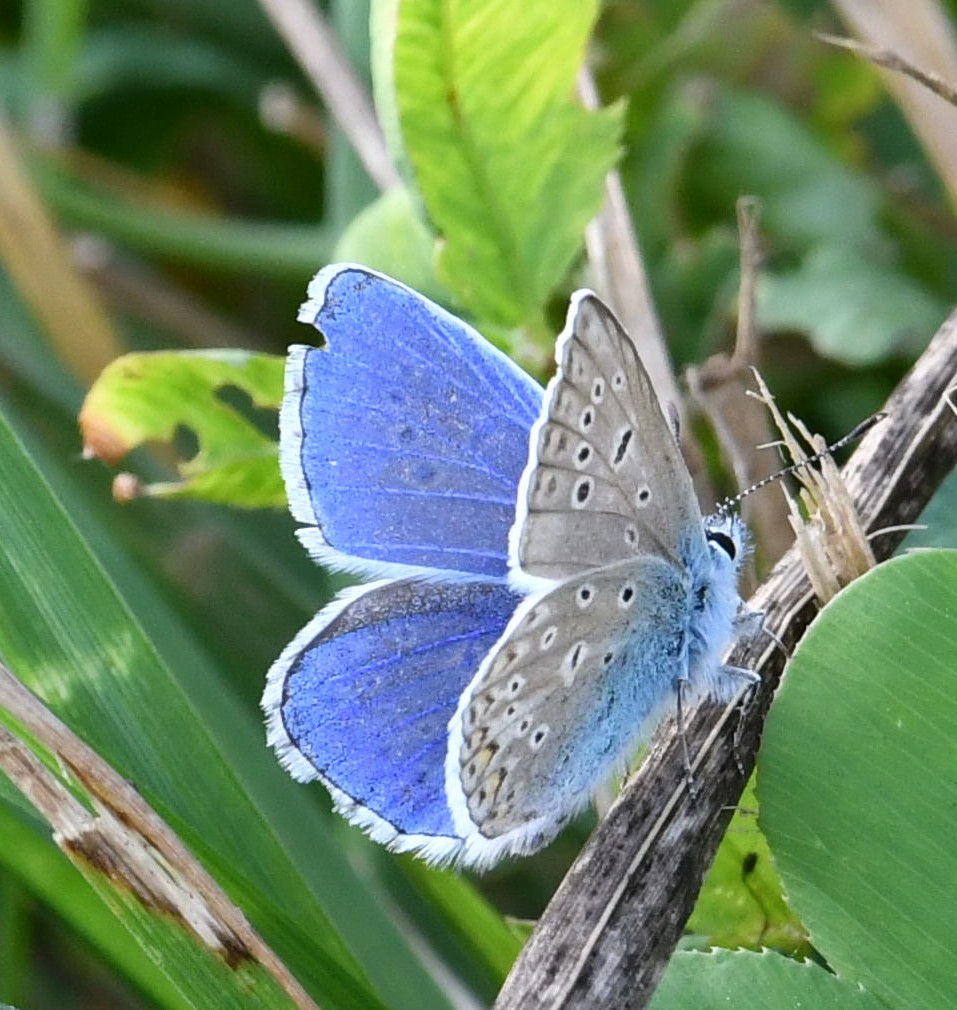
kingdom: Animalia
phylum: Arthropoda
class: Insecta
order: Lepidoptera
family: Lycaenidae
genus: Polyommatus
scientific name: Polyommatus icarus
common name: Common blue
